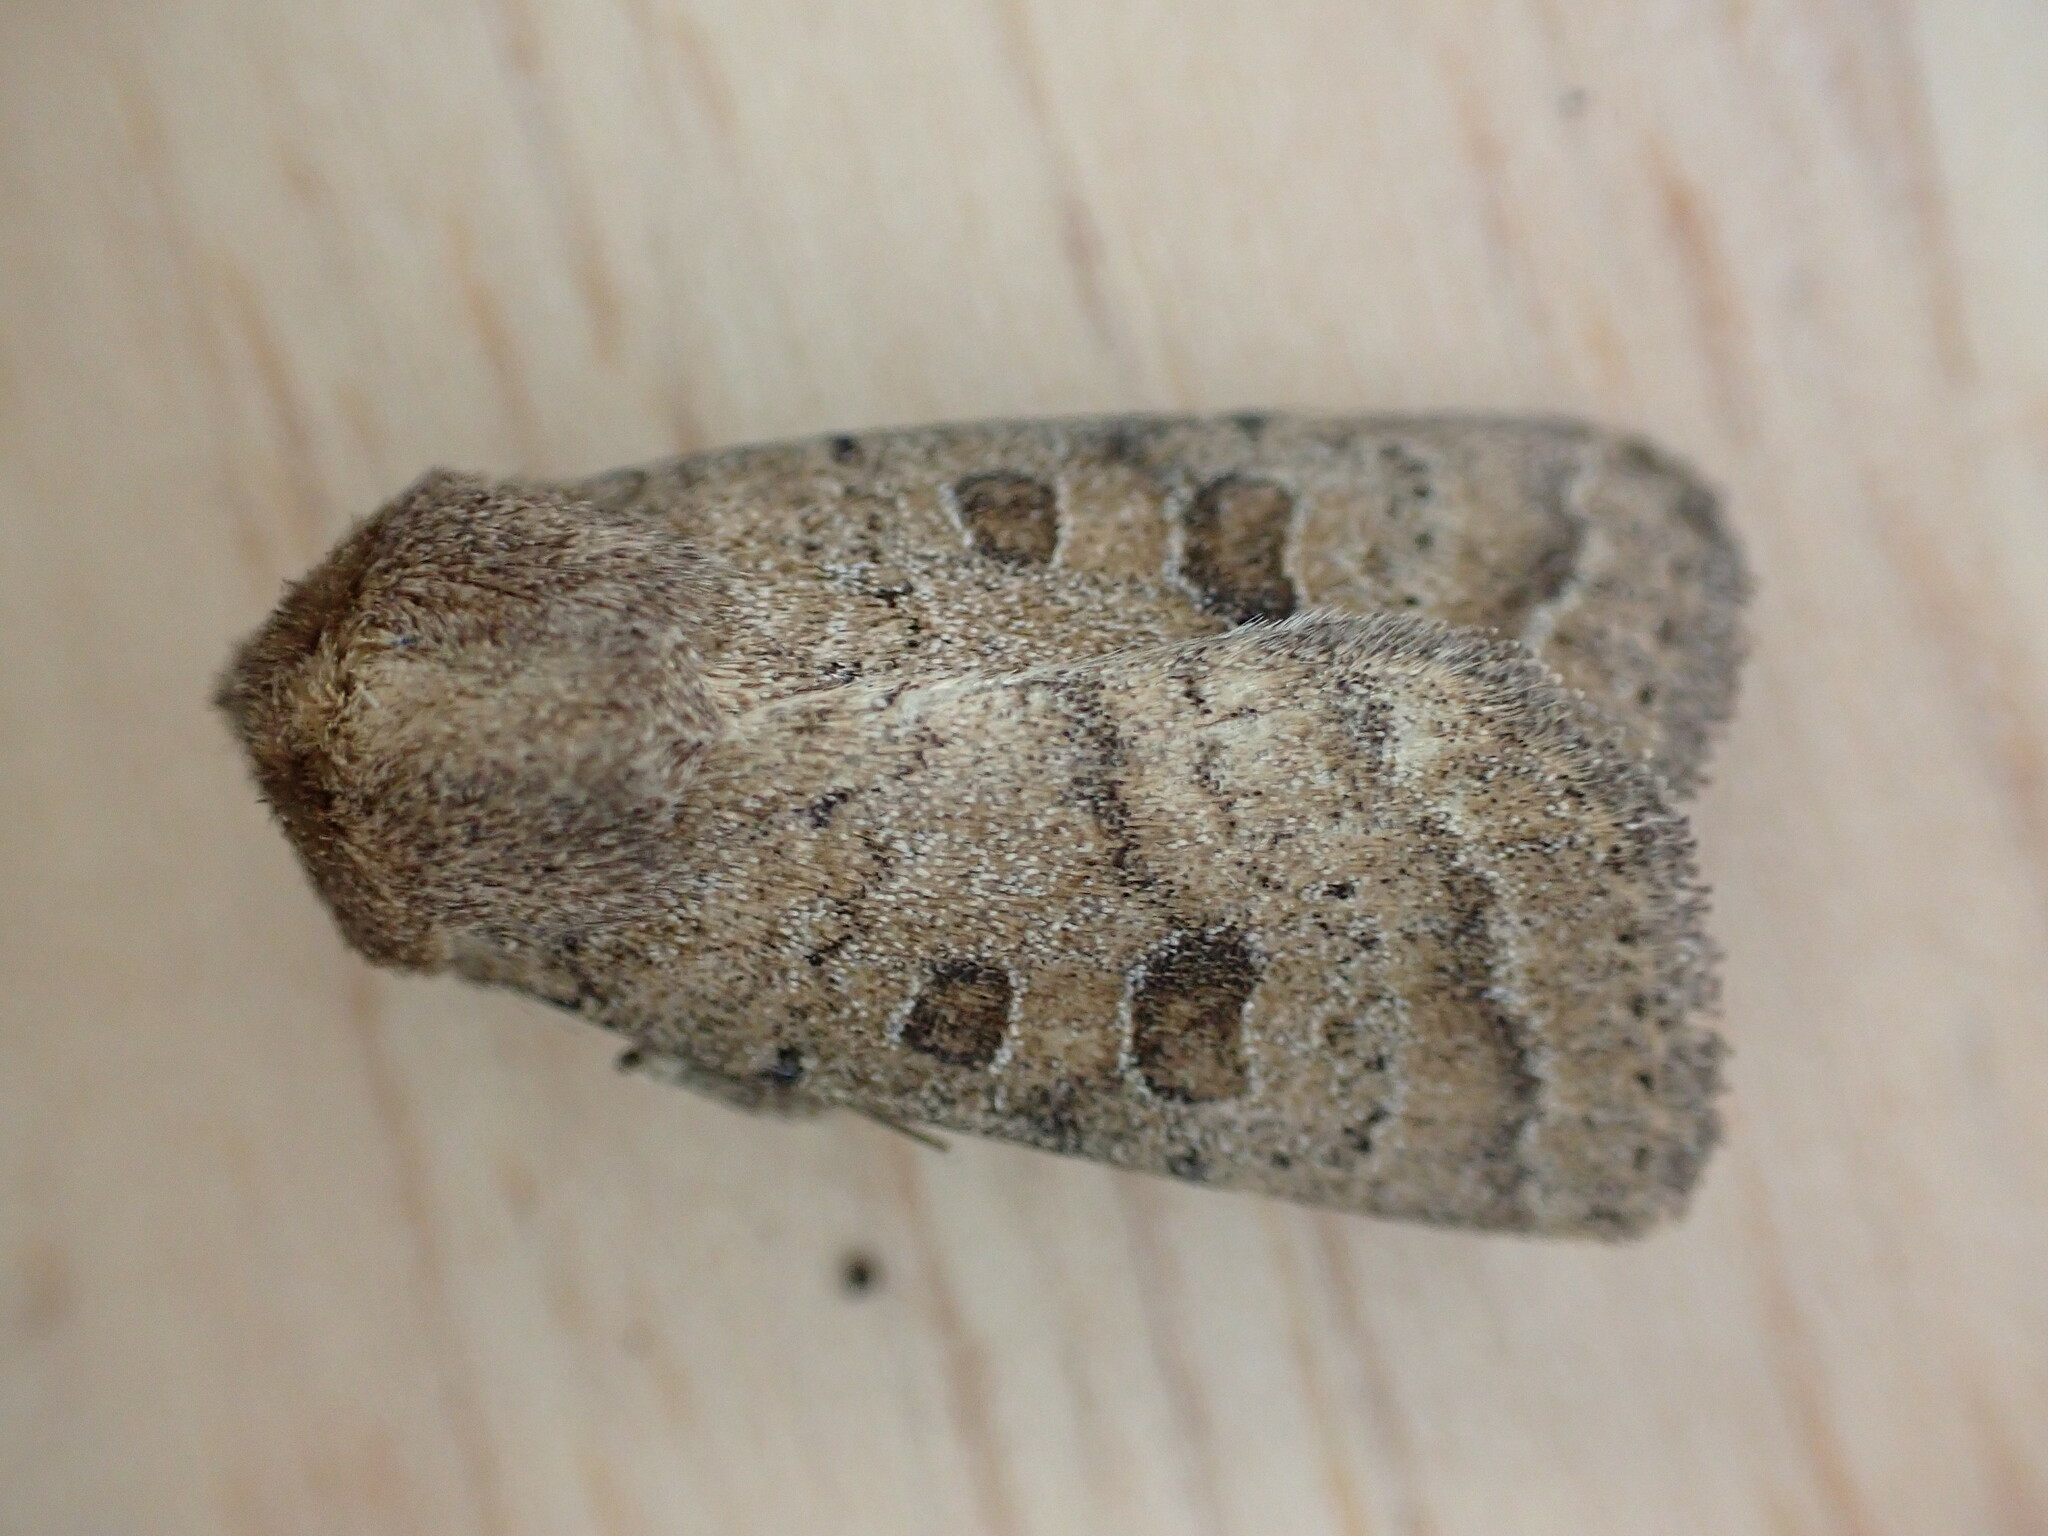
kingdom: Animalia
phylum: Arthropoda
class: Insecta
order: Lepidoptera
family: Noctuidae
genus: Hoplodrina
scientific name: Hoplodrina blanda
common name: Rustic
